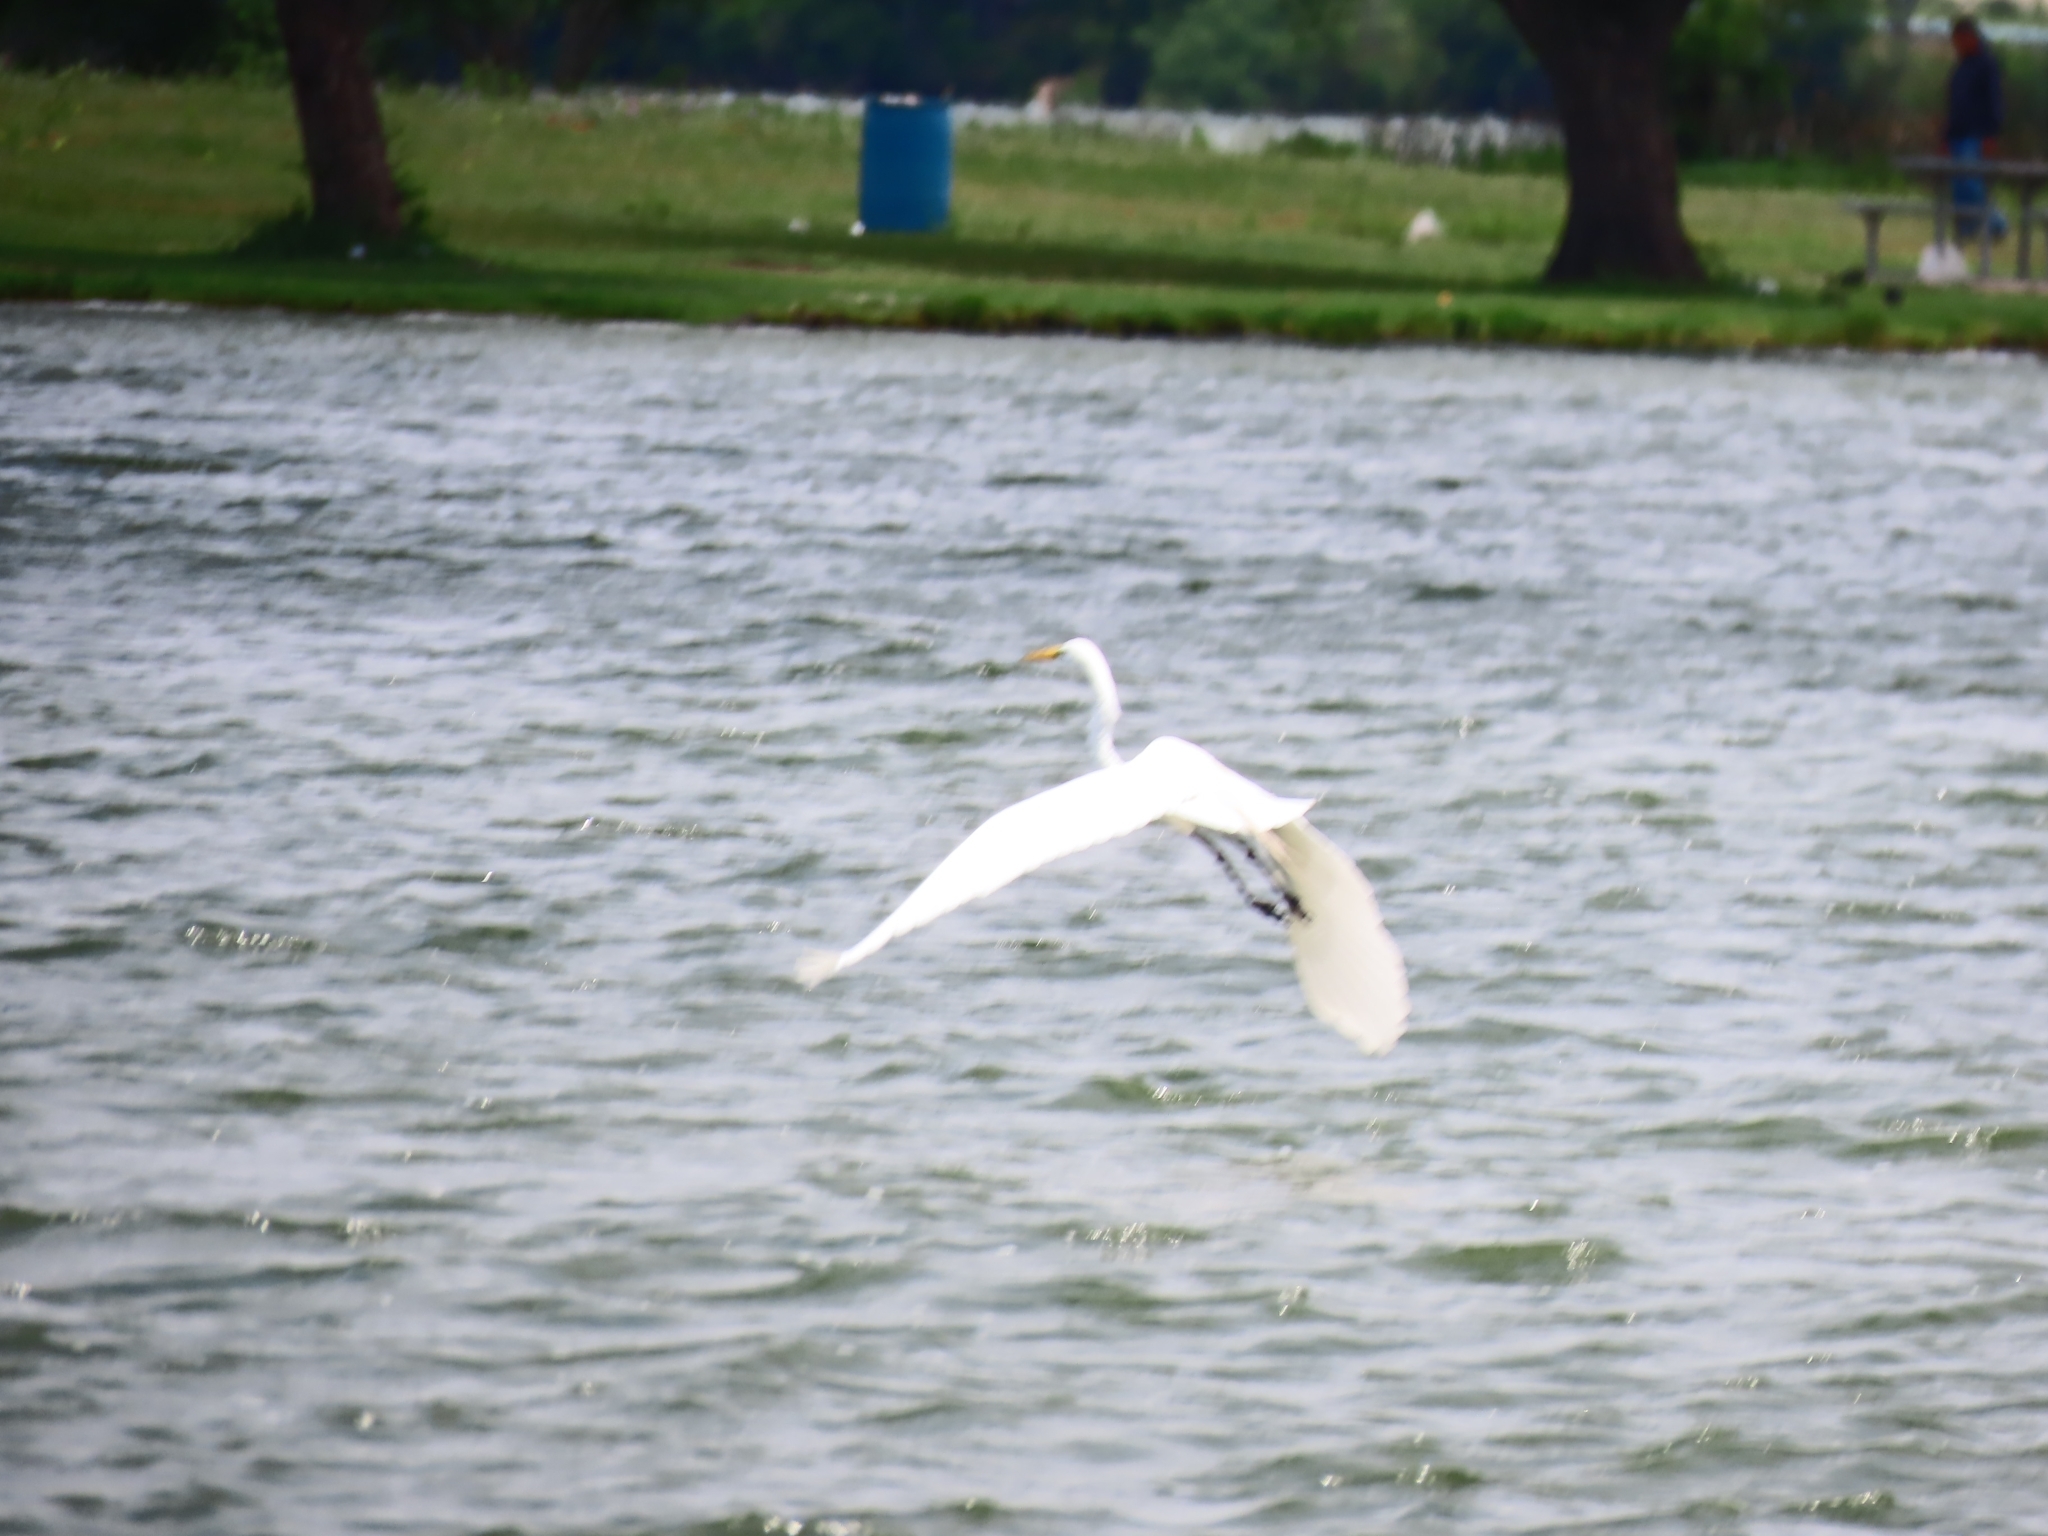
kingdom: Animalia
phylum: Chordata
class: Aves
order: Pelecaniformes
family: Ardeidae
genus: Ardea
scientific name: Ardea alba
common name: Great egret
